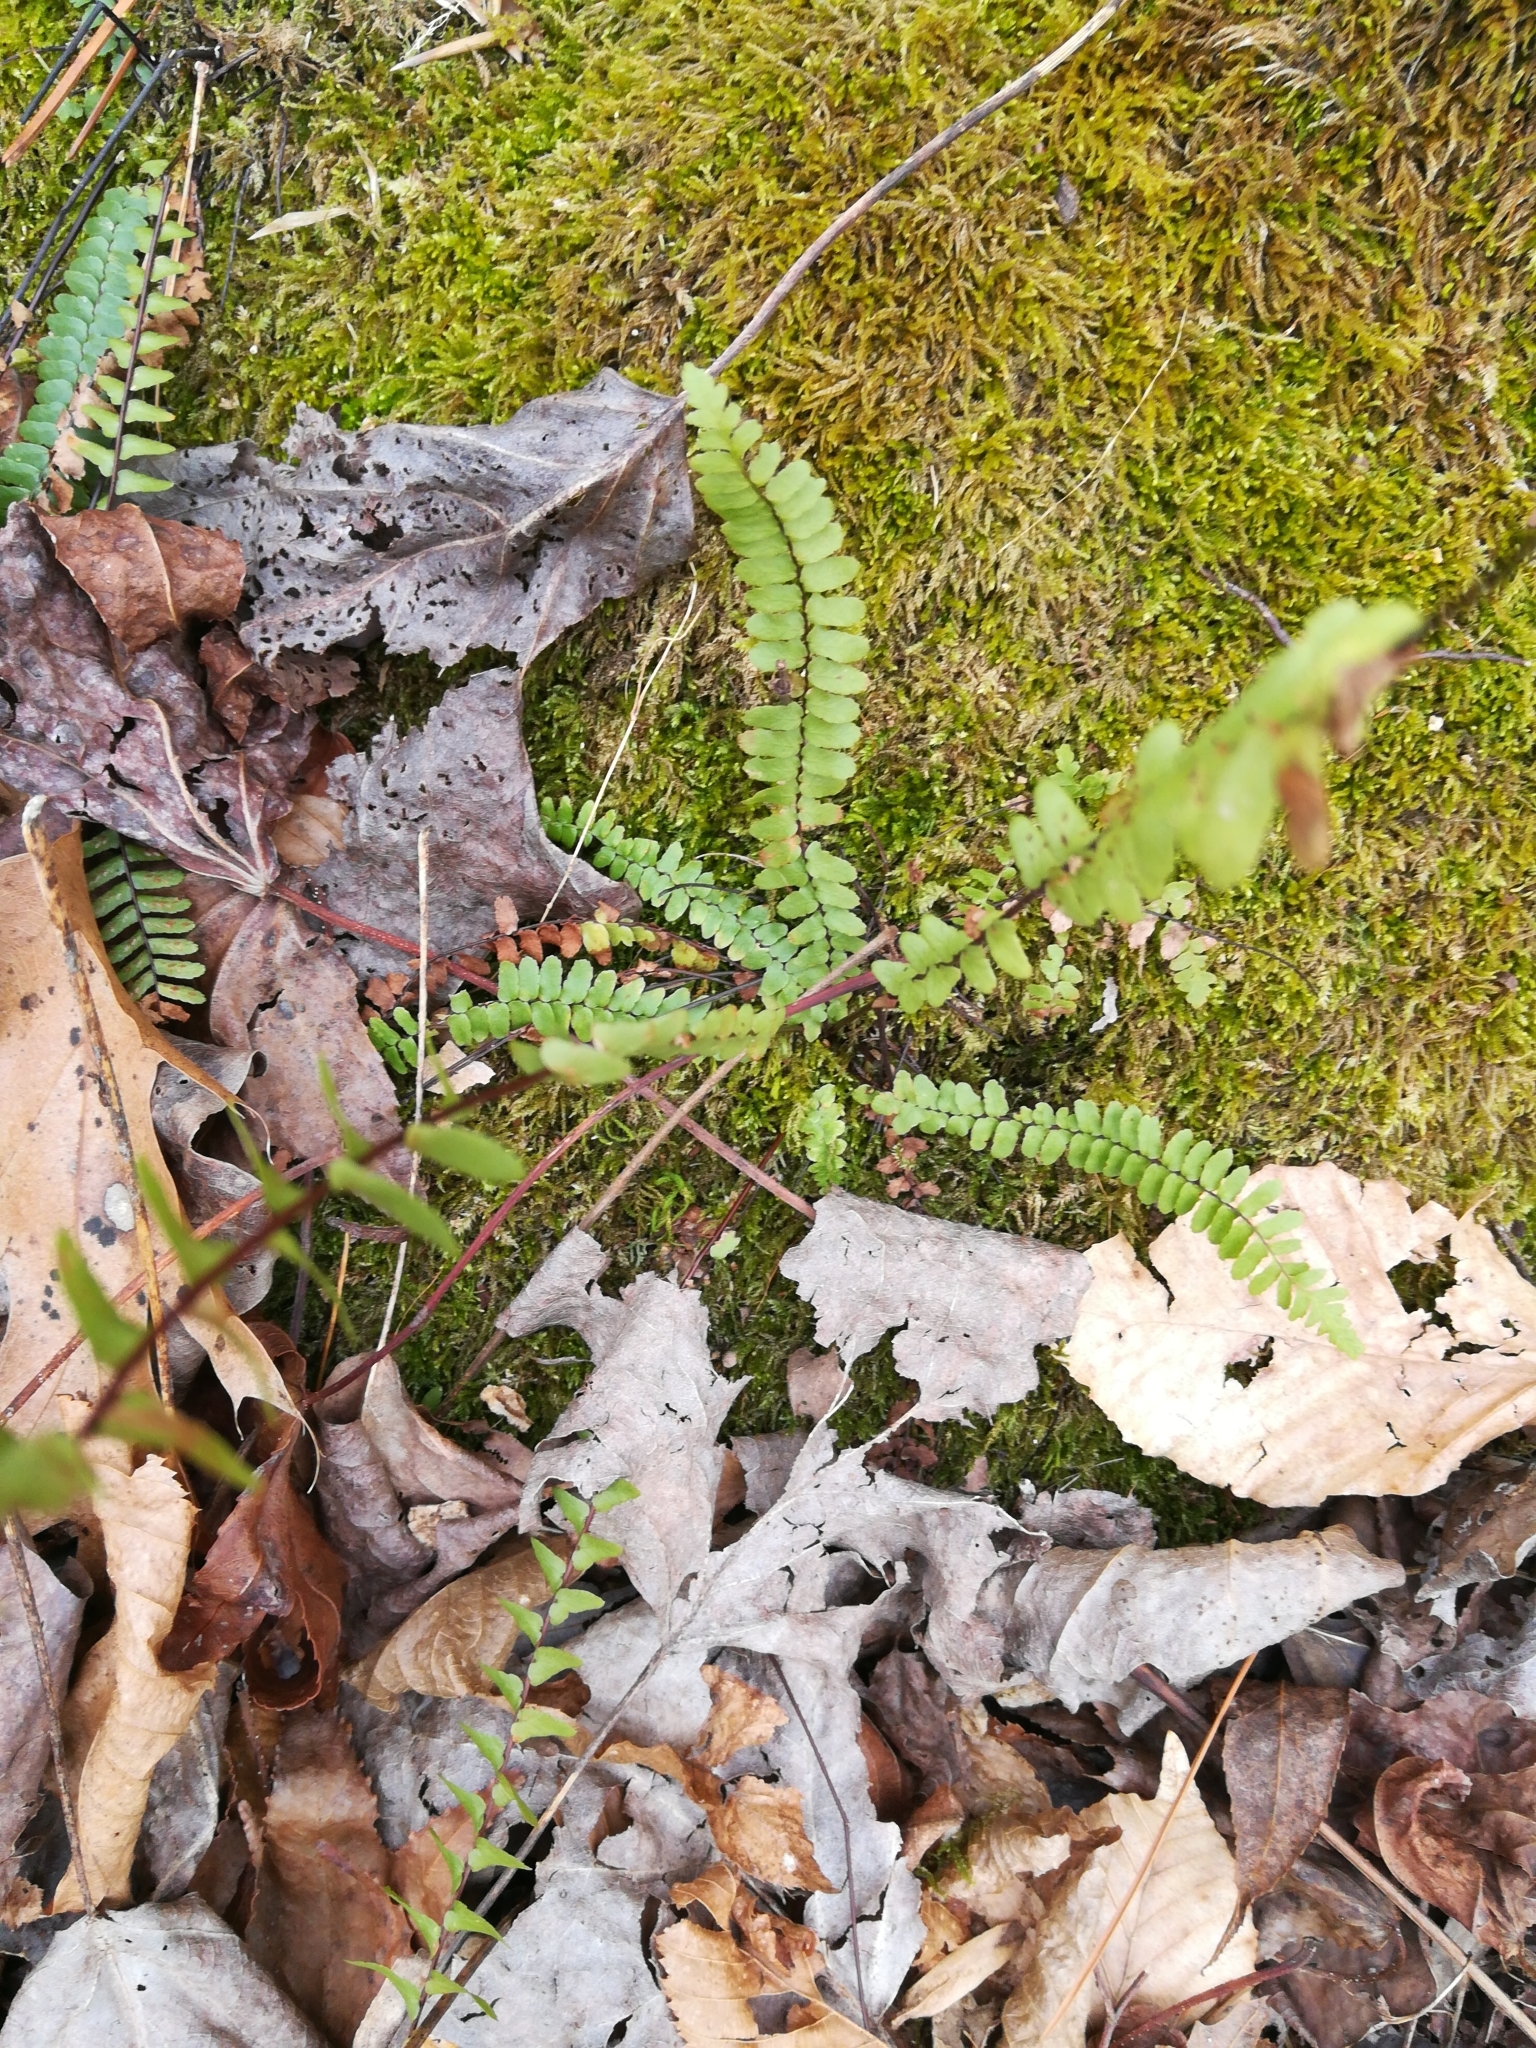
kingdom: Plantae
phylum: Tracheophyta
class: Polypodiopsida
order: Polypodiales
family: Aspleniaceae
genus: Asplenium
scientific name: Asplenium platyneuron
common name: Ebony spleenwort
